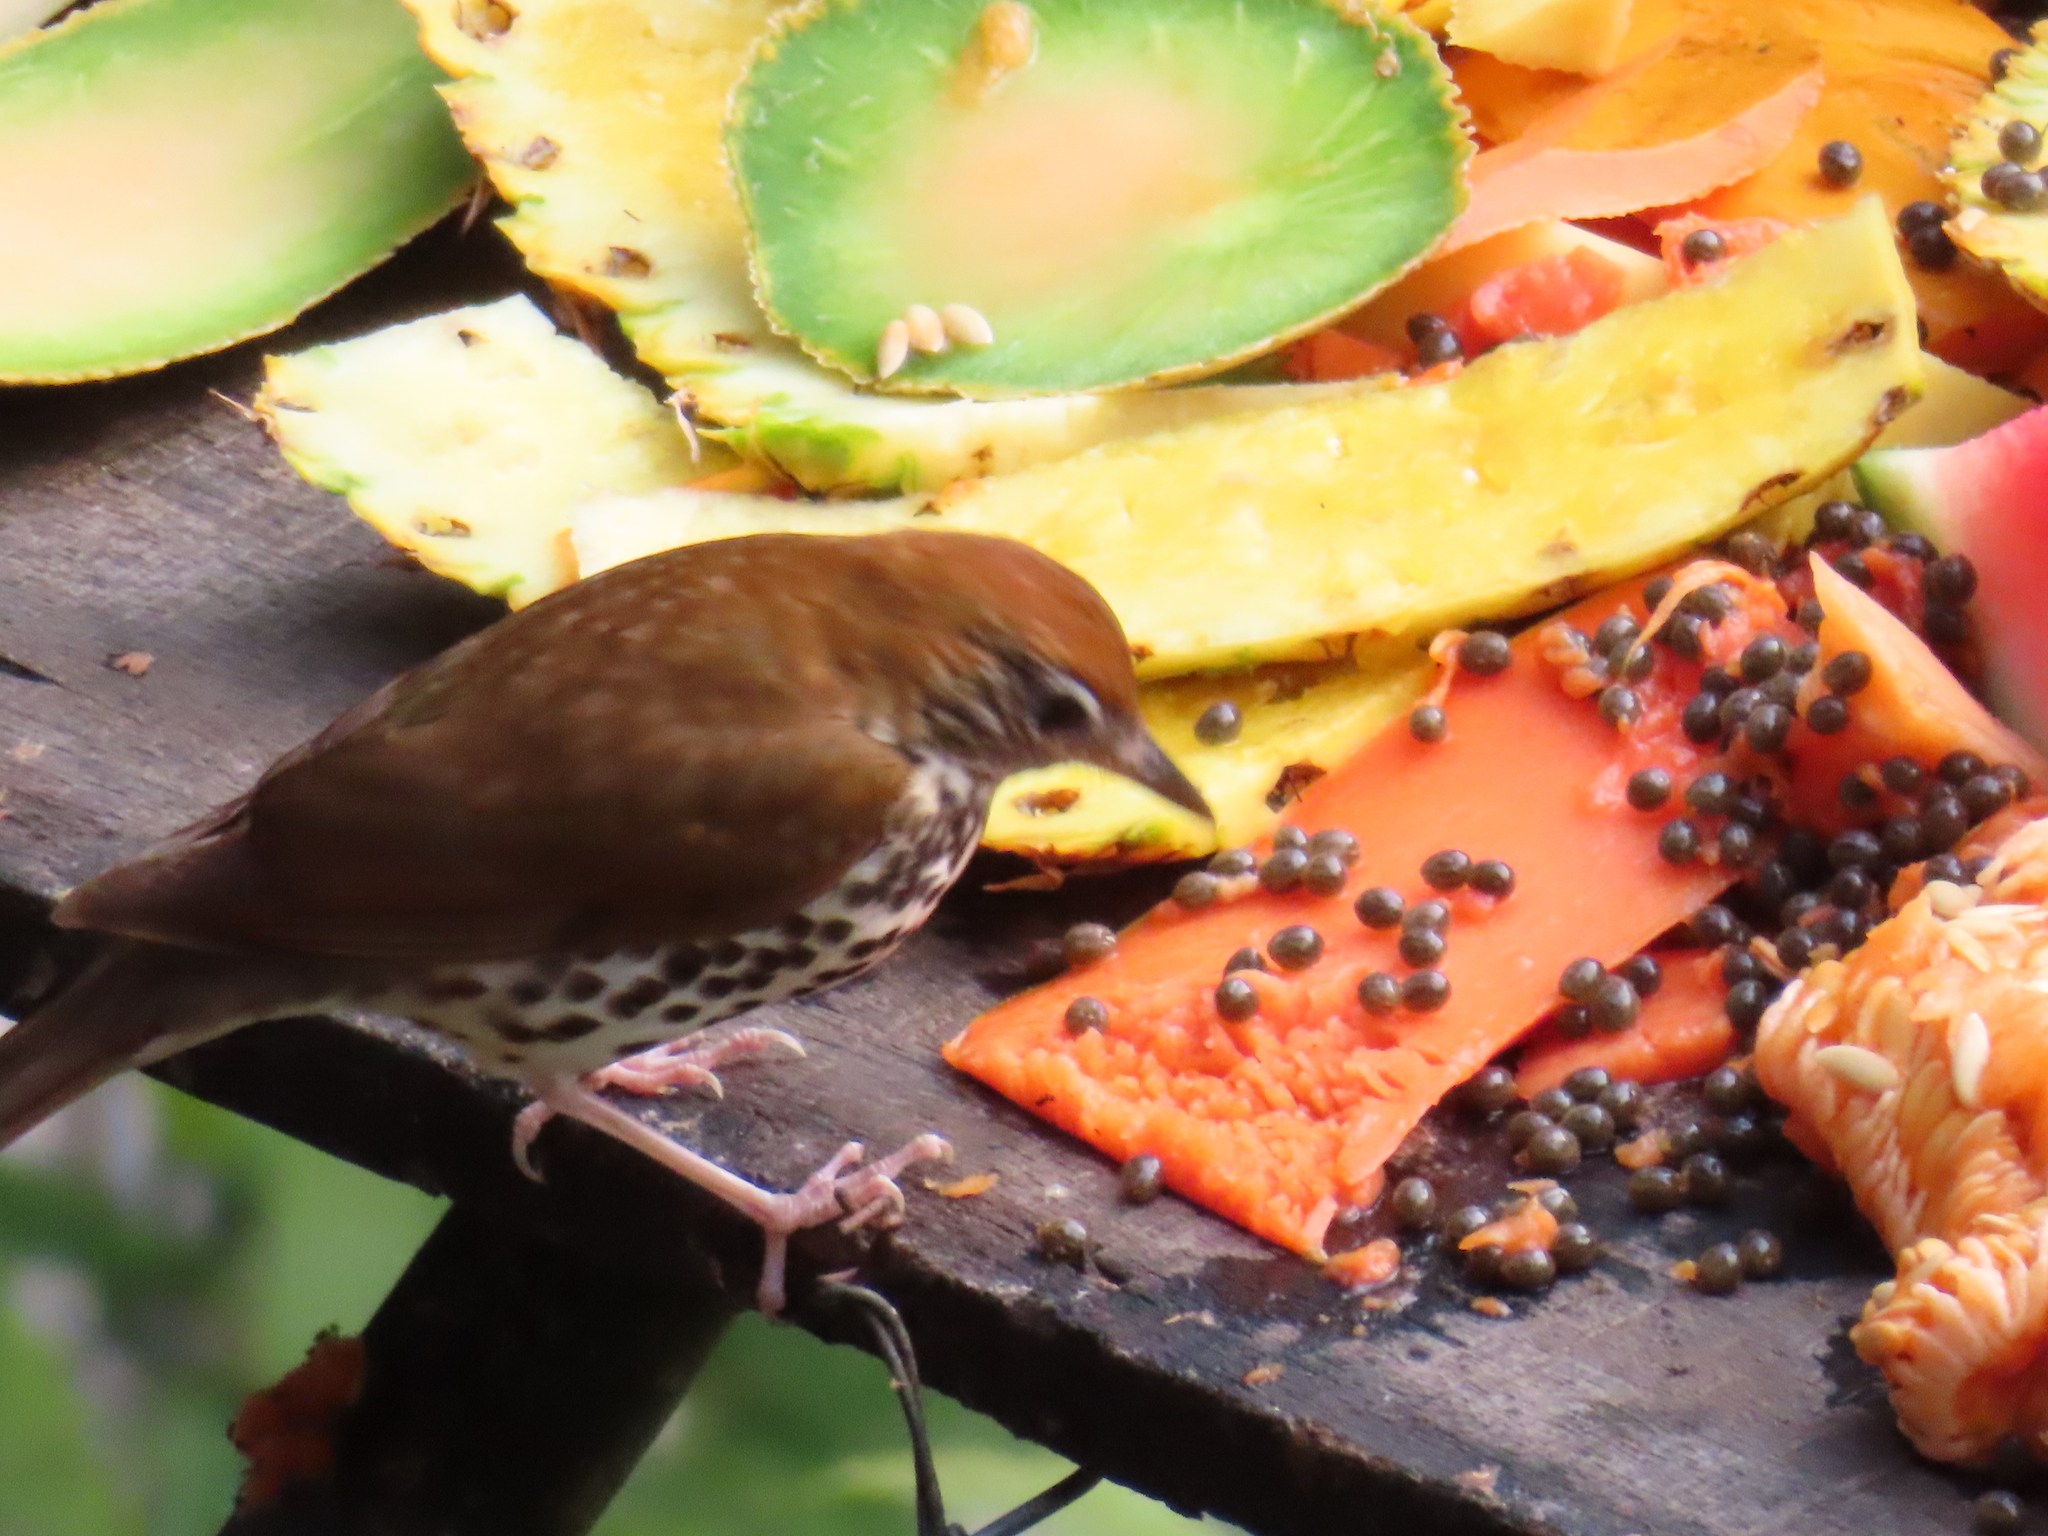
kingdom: Animalia
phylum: Chordata
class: Aves
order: Passeriformes
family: Turdidae
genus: Hylocichla
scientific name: Hylocichla mustelina
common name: Wood thrush
